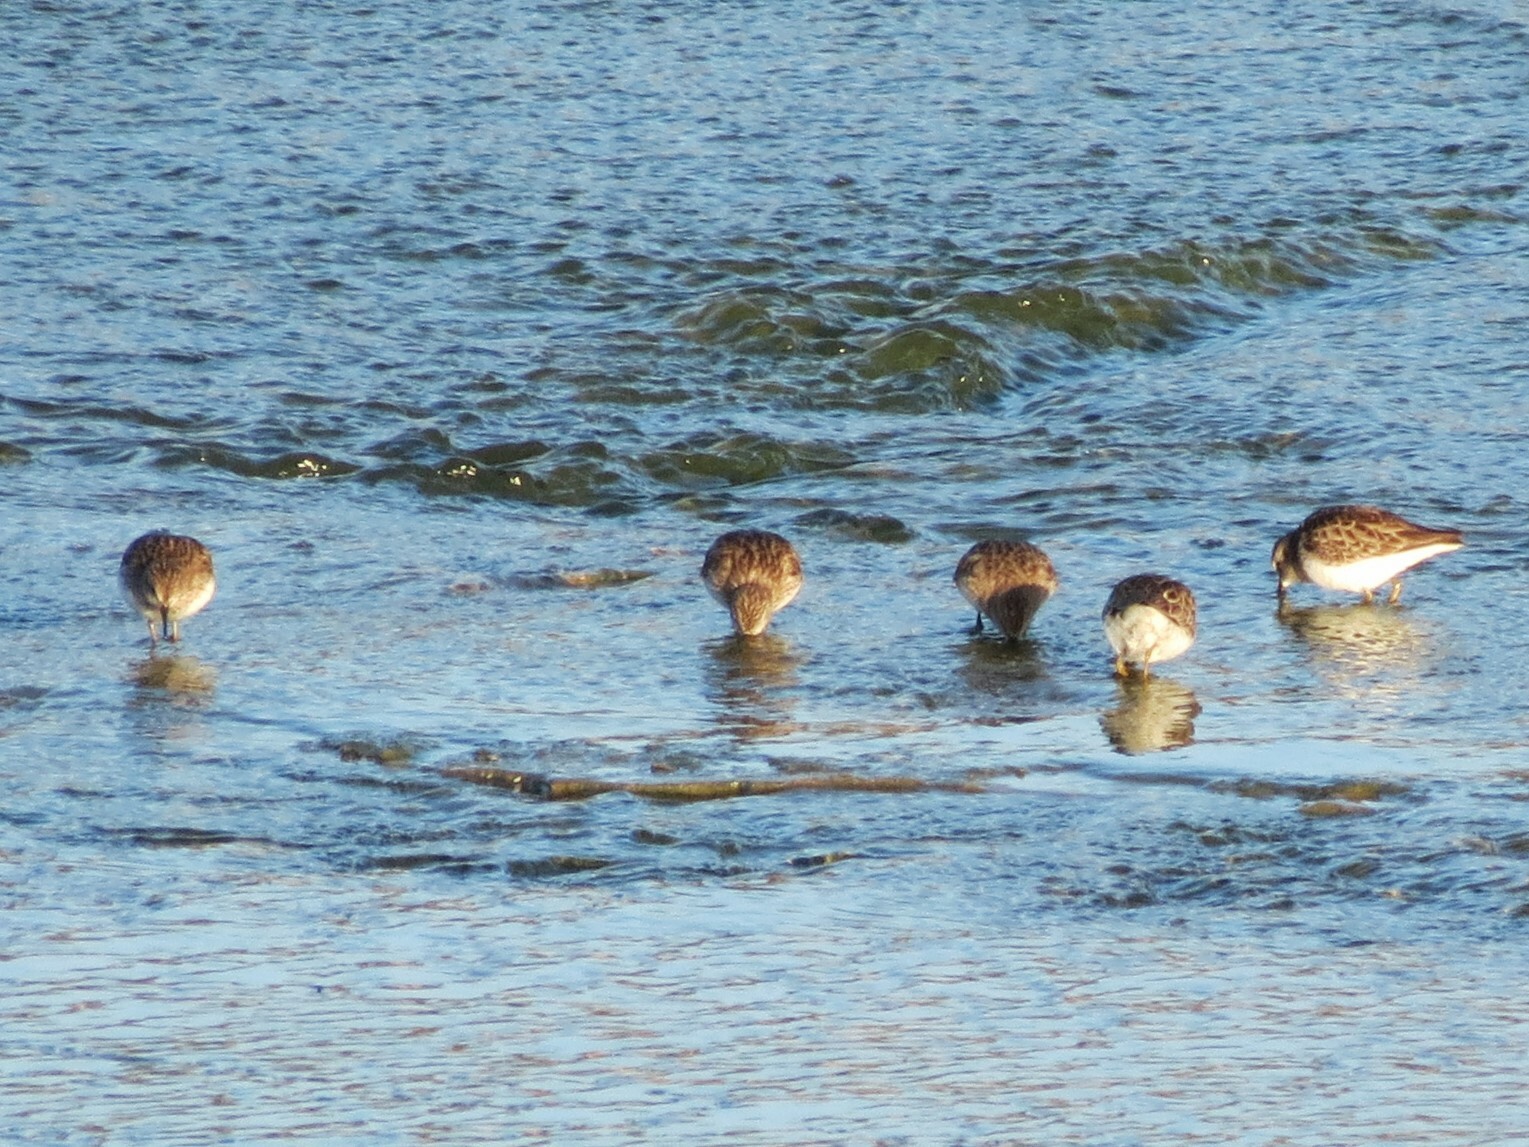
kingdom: Animalia
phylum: Chordata
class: Aves
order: Charadriiformes
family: Scolopacidae
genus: Calidris
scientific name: Calidris minutilla
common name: Least sandpiper
